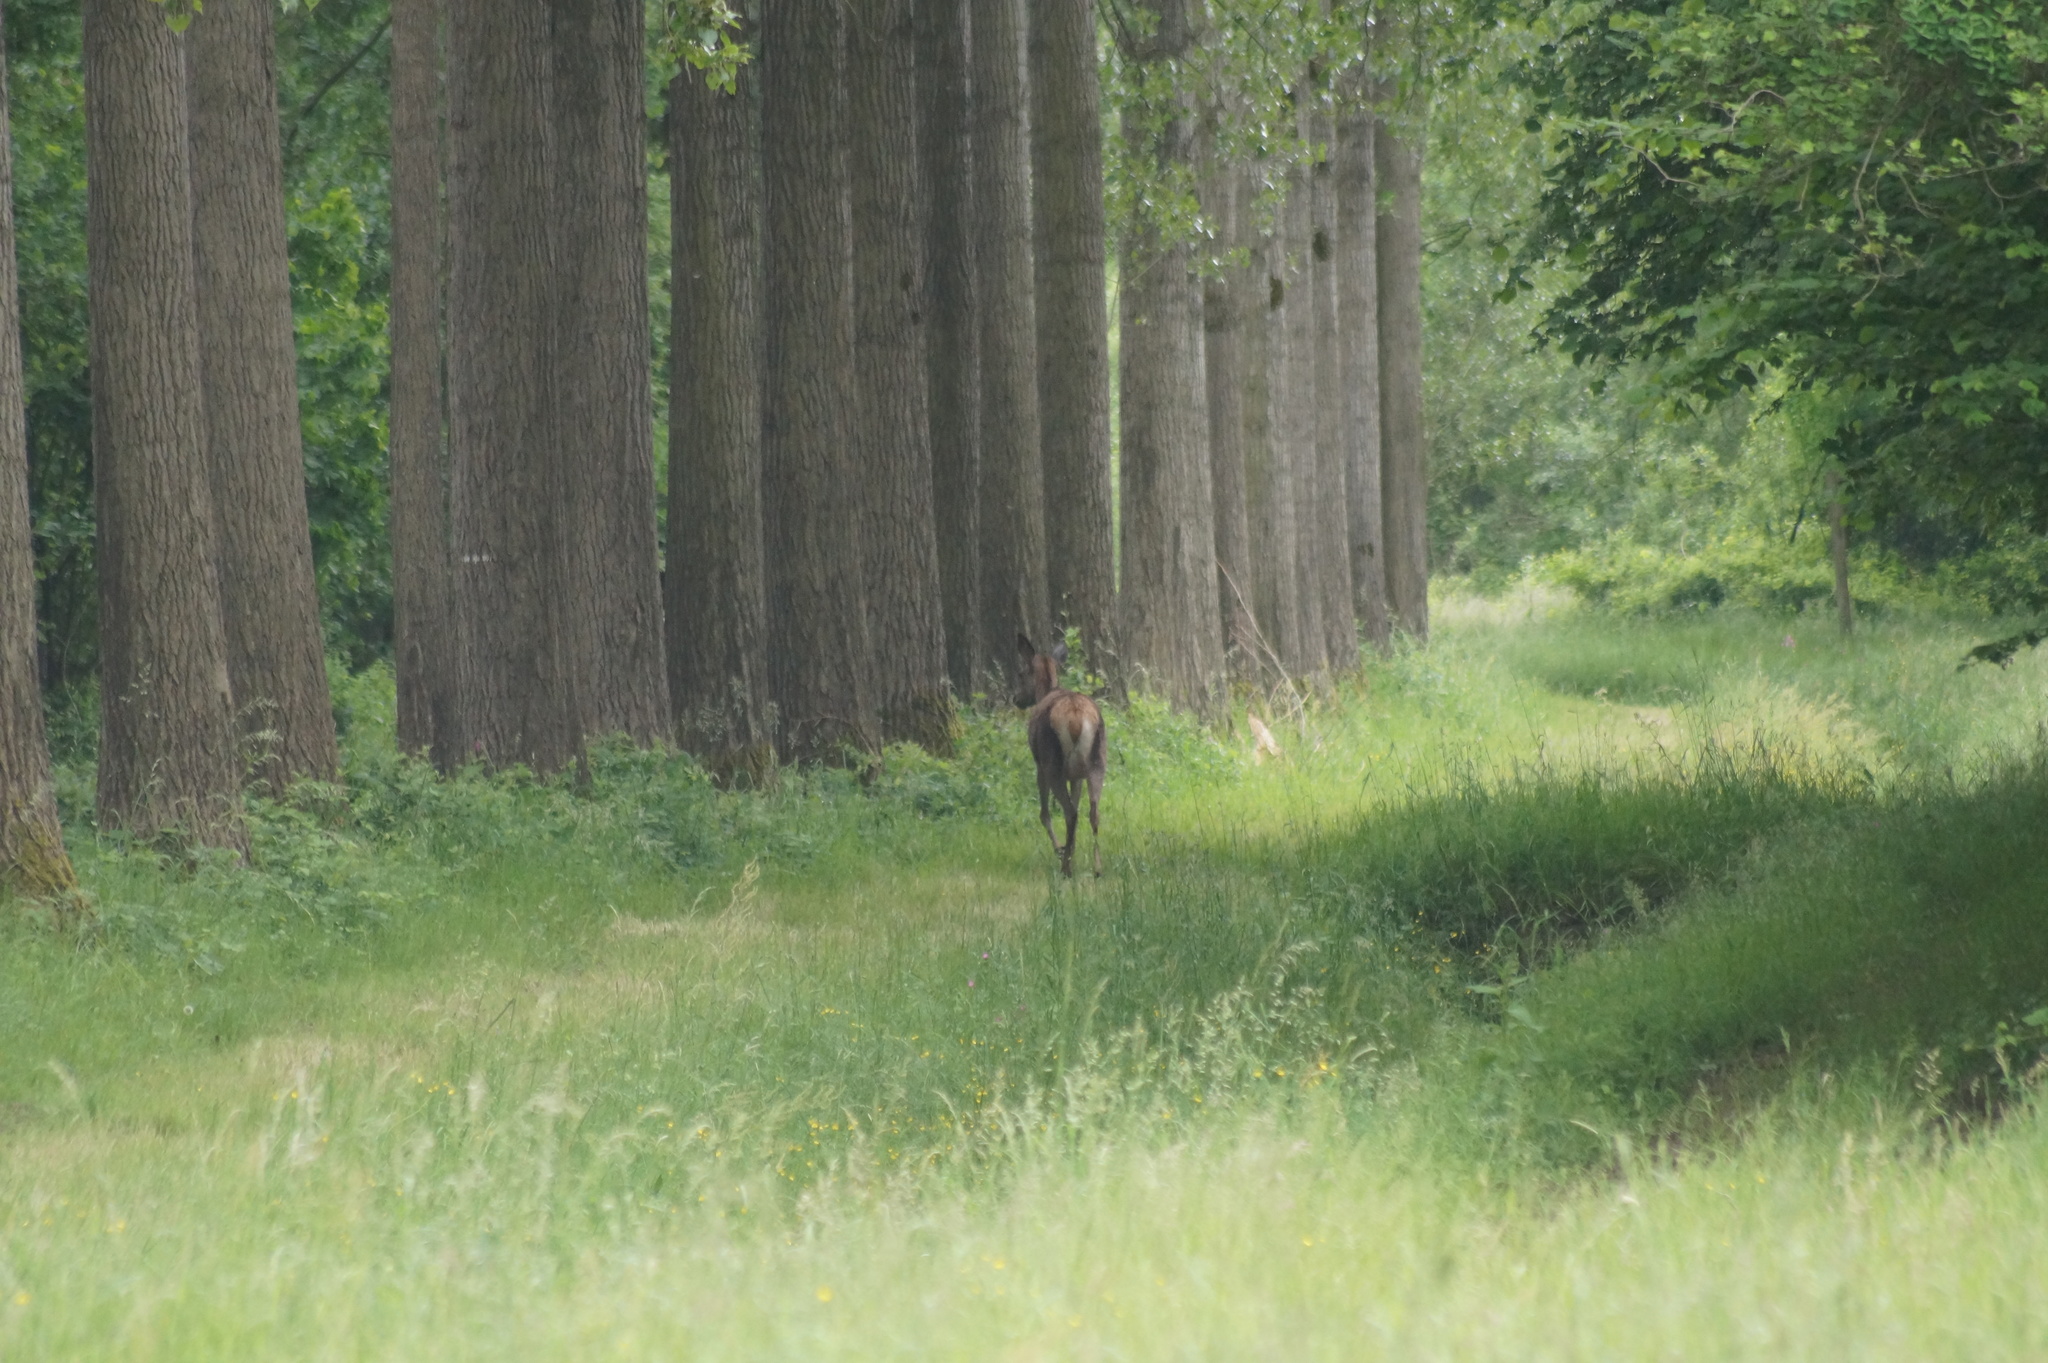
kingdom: Animalia
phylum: Chordata
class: Mammalia
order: Artiodactyla
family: Cervidae
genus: Cervus
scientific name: Cervus elaphus
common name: Red deer
